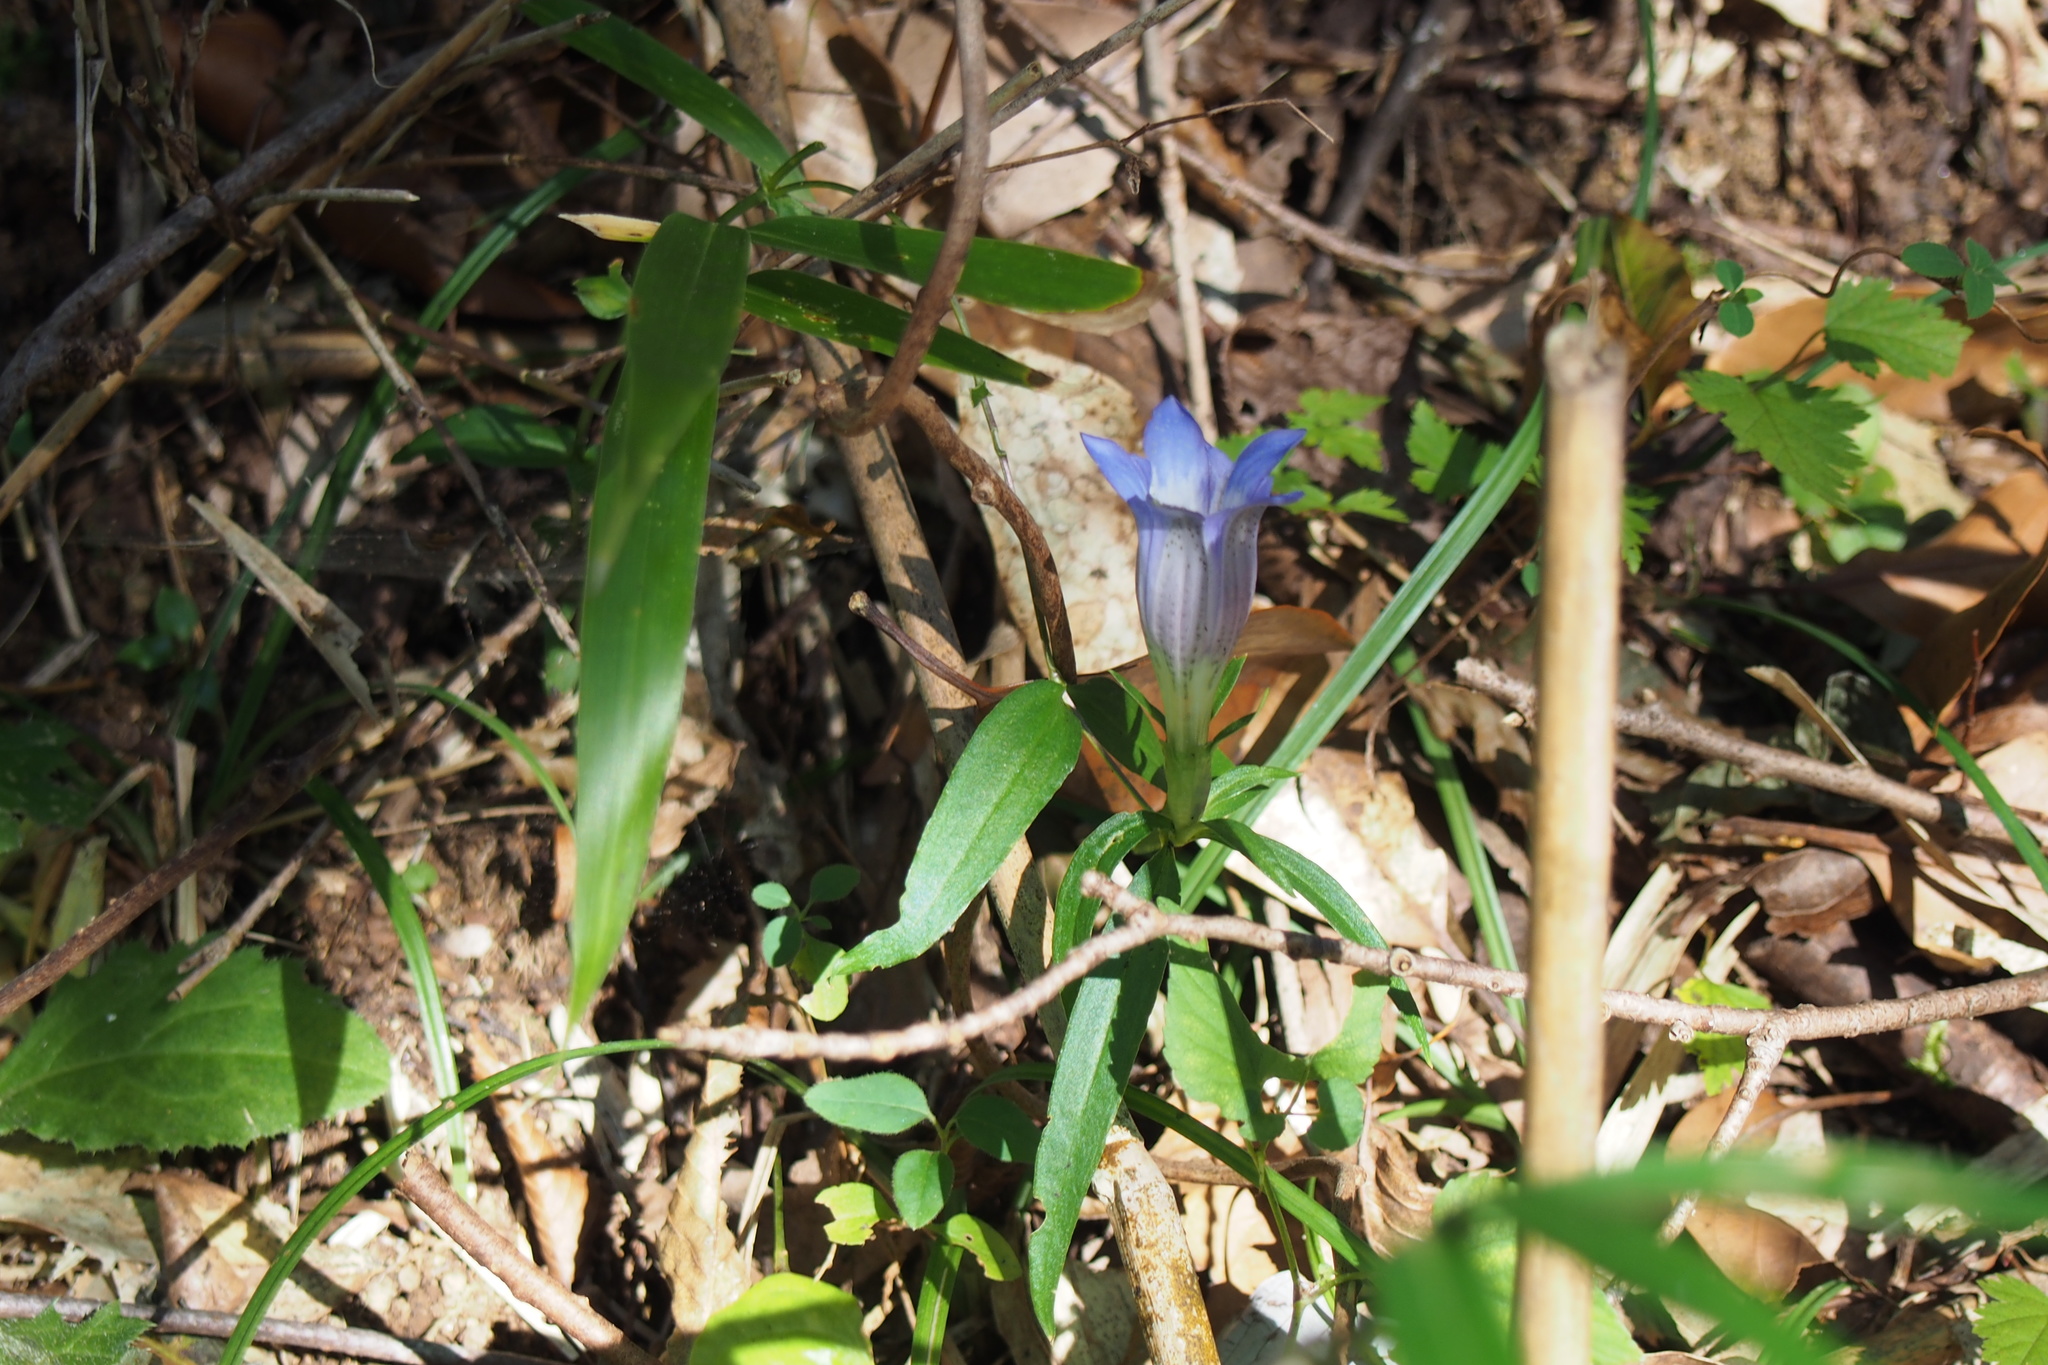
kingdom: Plantae
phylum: Tracheophyta
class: Magnoliopsida
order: Gentianales
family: Gentianaceae
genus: Gentiana
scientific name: Gentiana scabra
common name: Scabrous gentian
